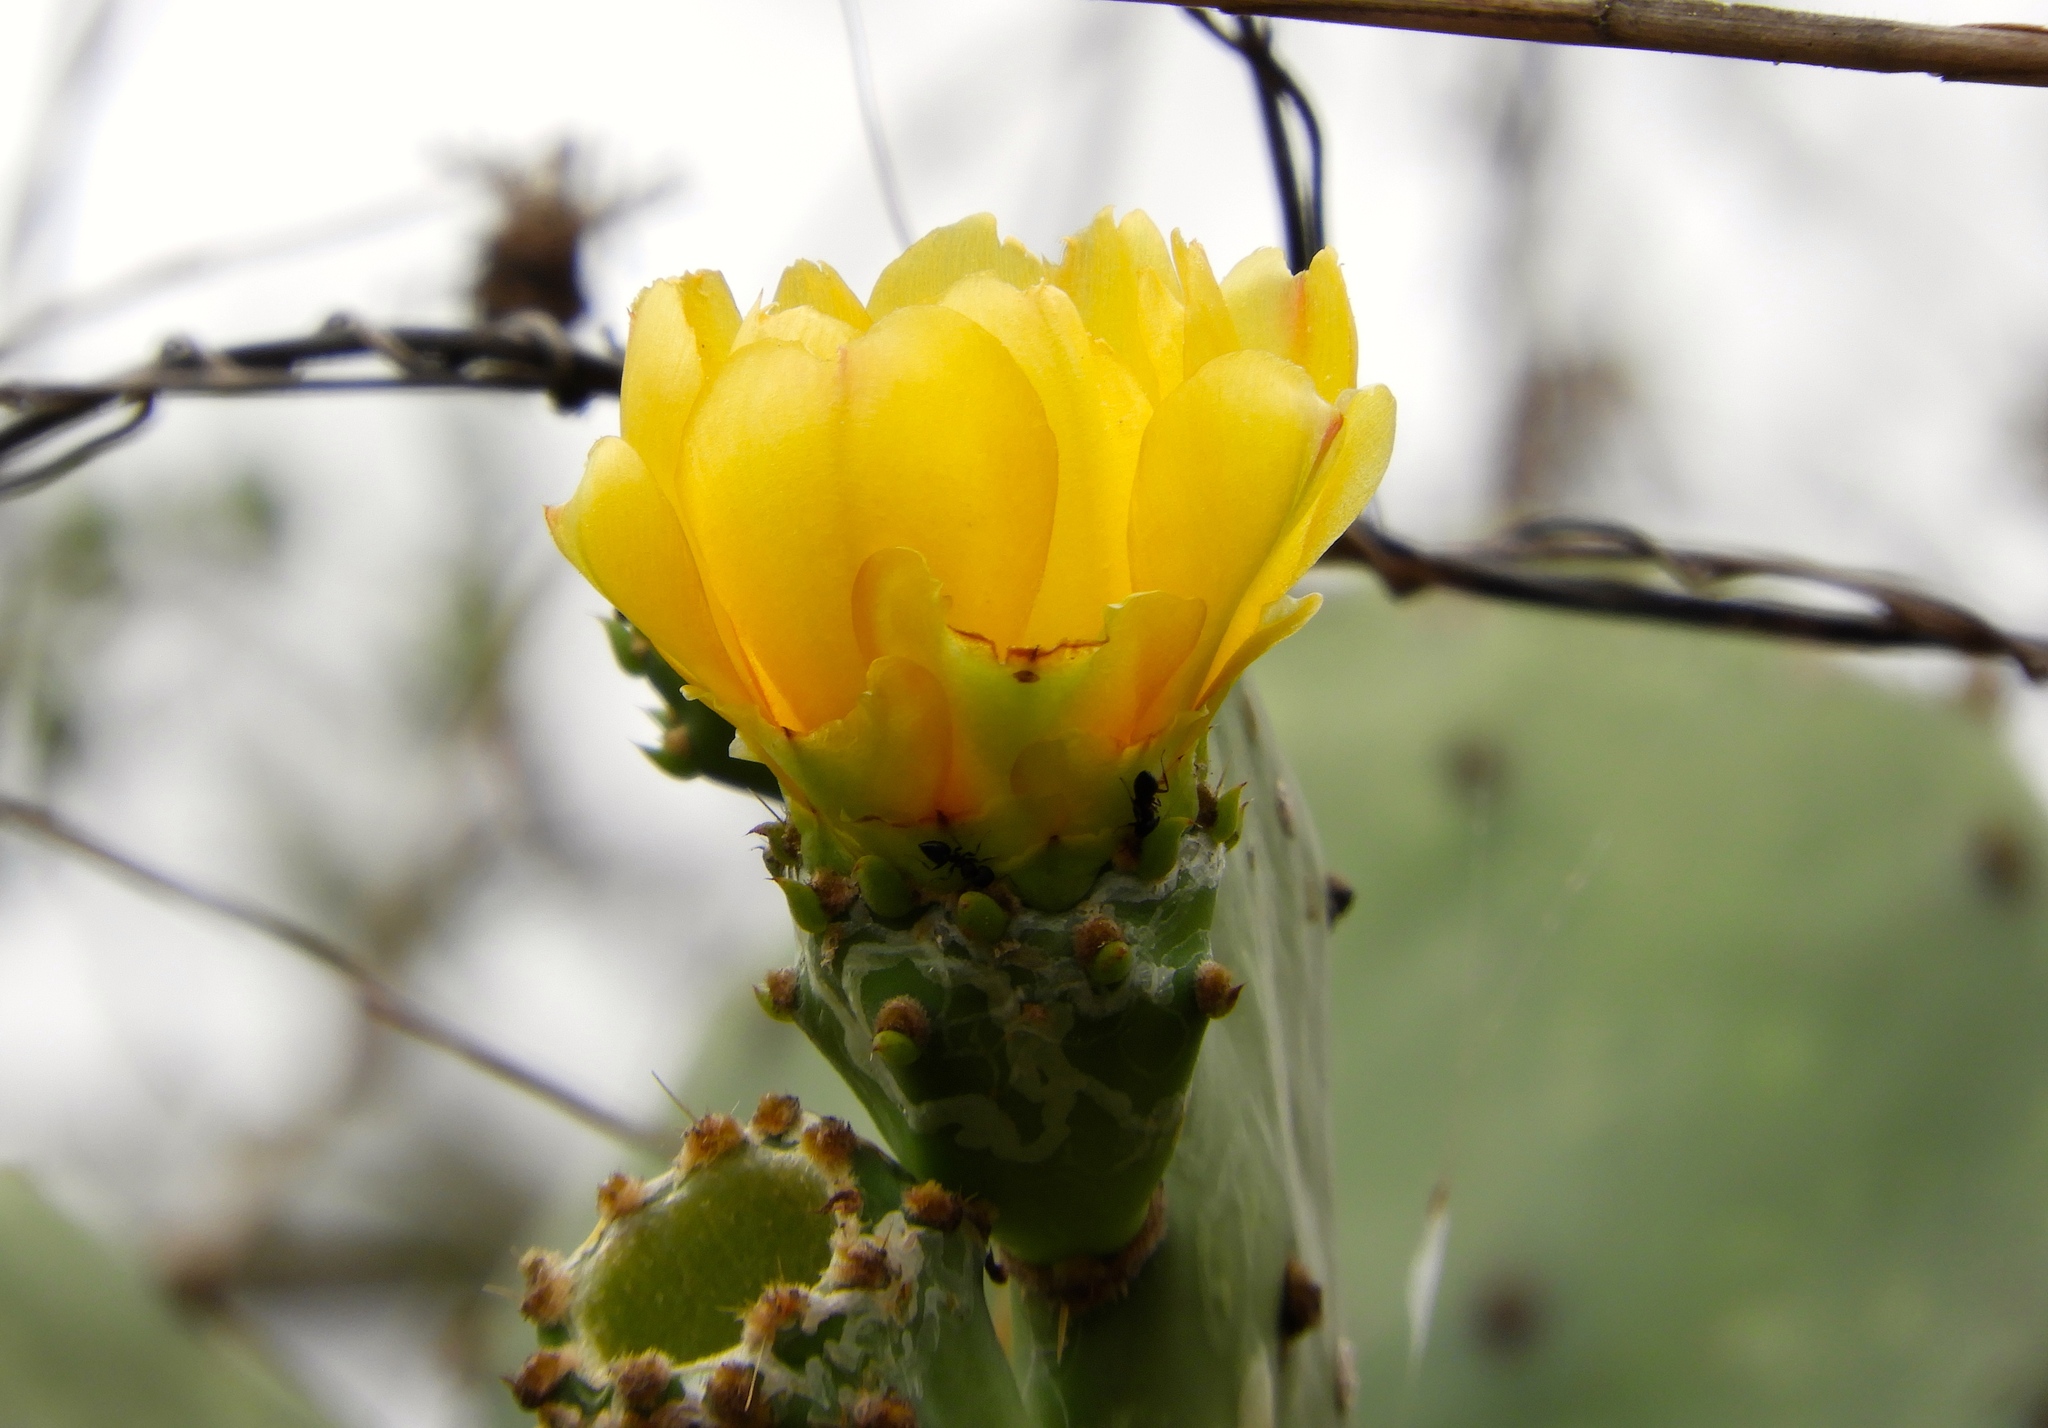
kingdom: Plantae
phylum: Tracheophyta
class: Magnoliopsida
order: Caryophyllales
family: Cactaceae
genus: Opuntia
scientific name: Opuntia
